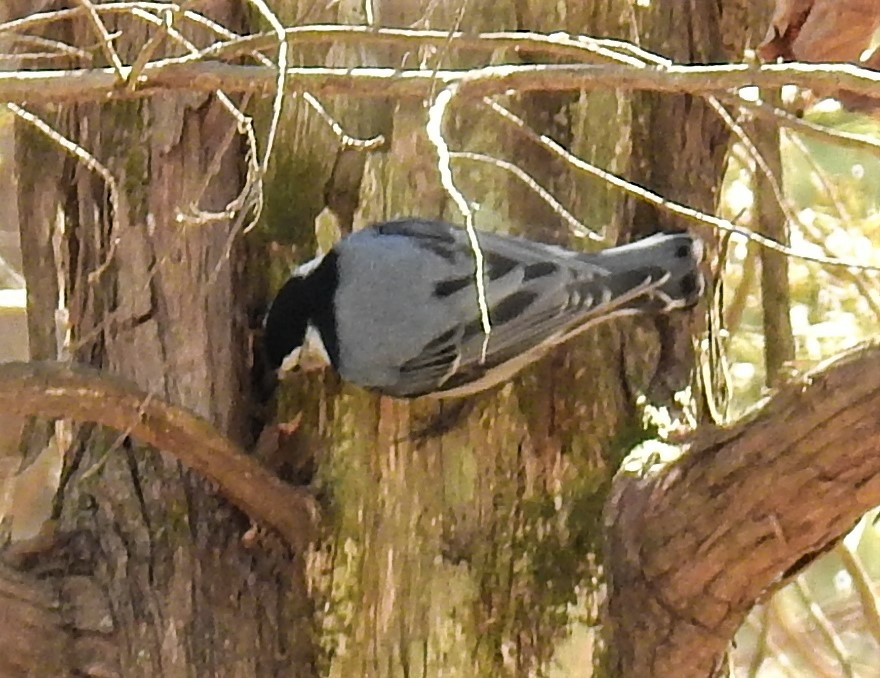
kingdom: Animalia
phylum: Chordata
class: Aves
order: Passeriformes
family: Sittidae
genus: Sitta
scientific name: Sitta carolinensis
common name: White-breasted nuthatch
